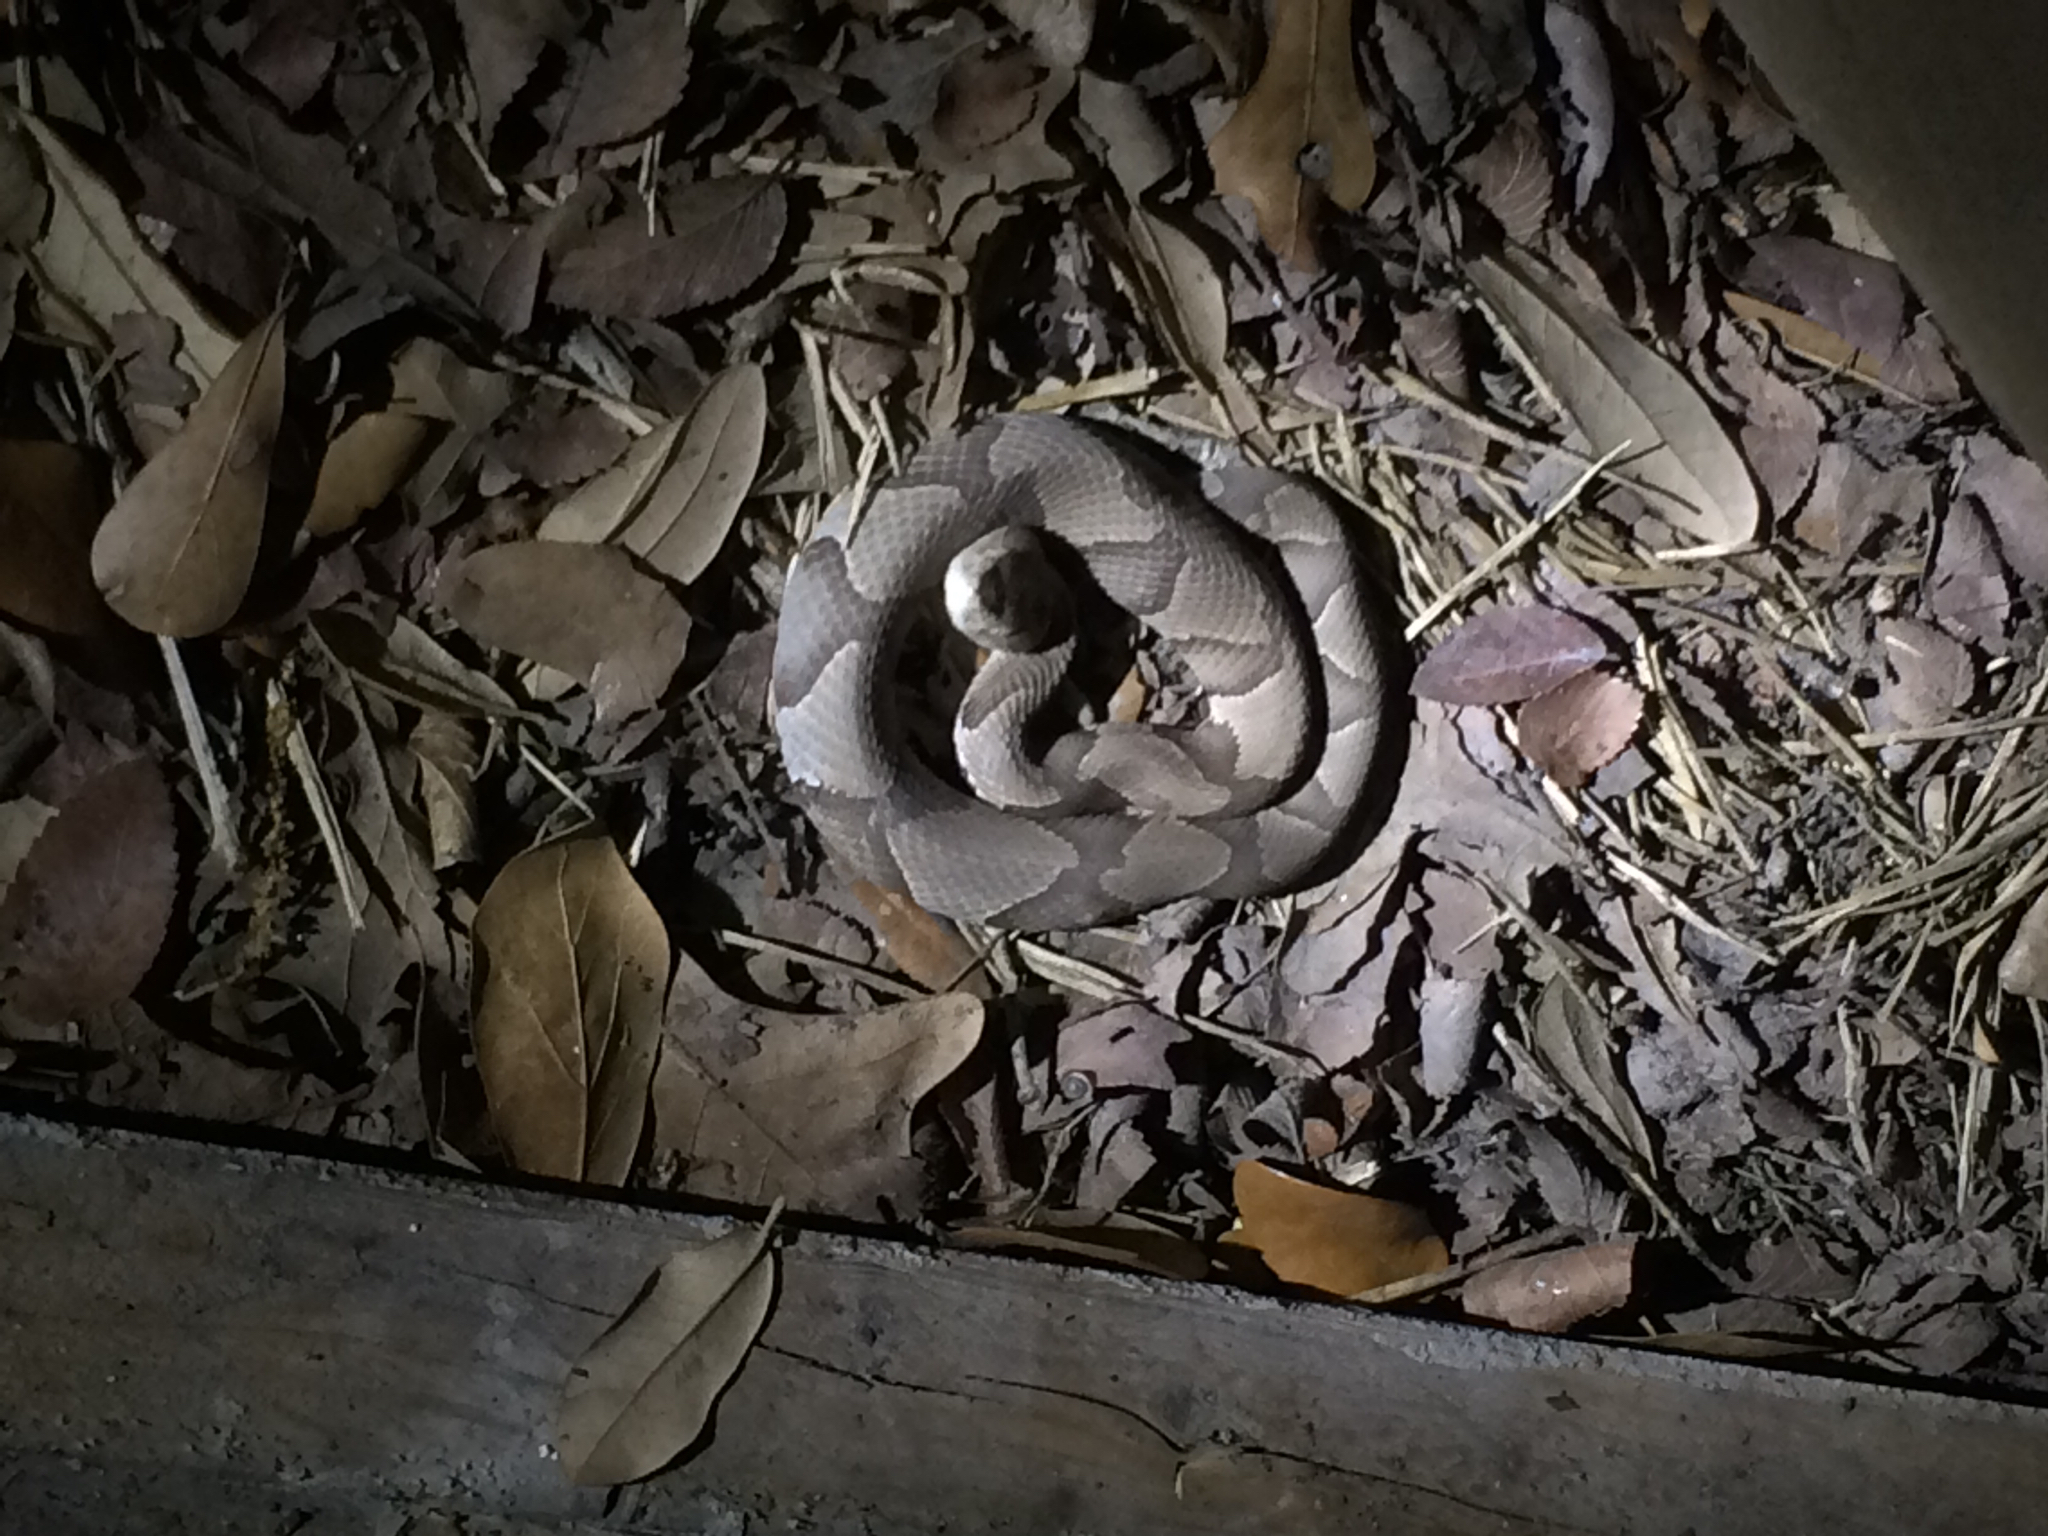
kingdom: Animalia
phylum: Chordata
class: Squamata
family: Viperidae
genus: Agkistrodon
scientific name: Agkistrodon contortrix
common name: Northern copperhead
